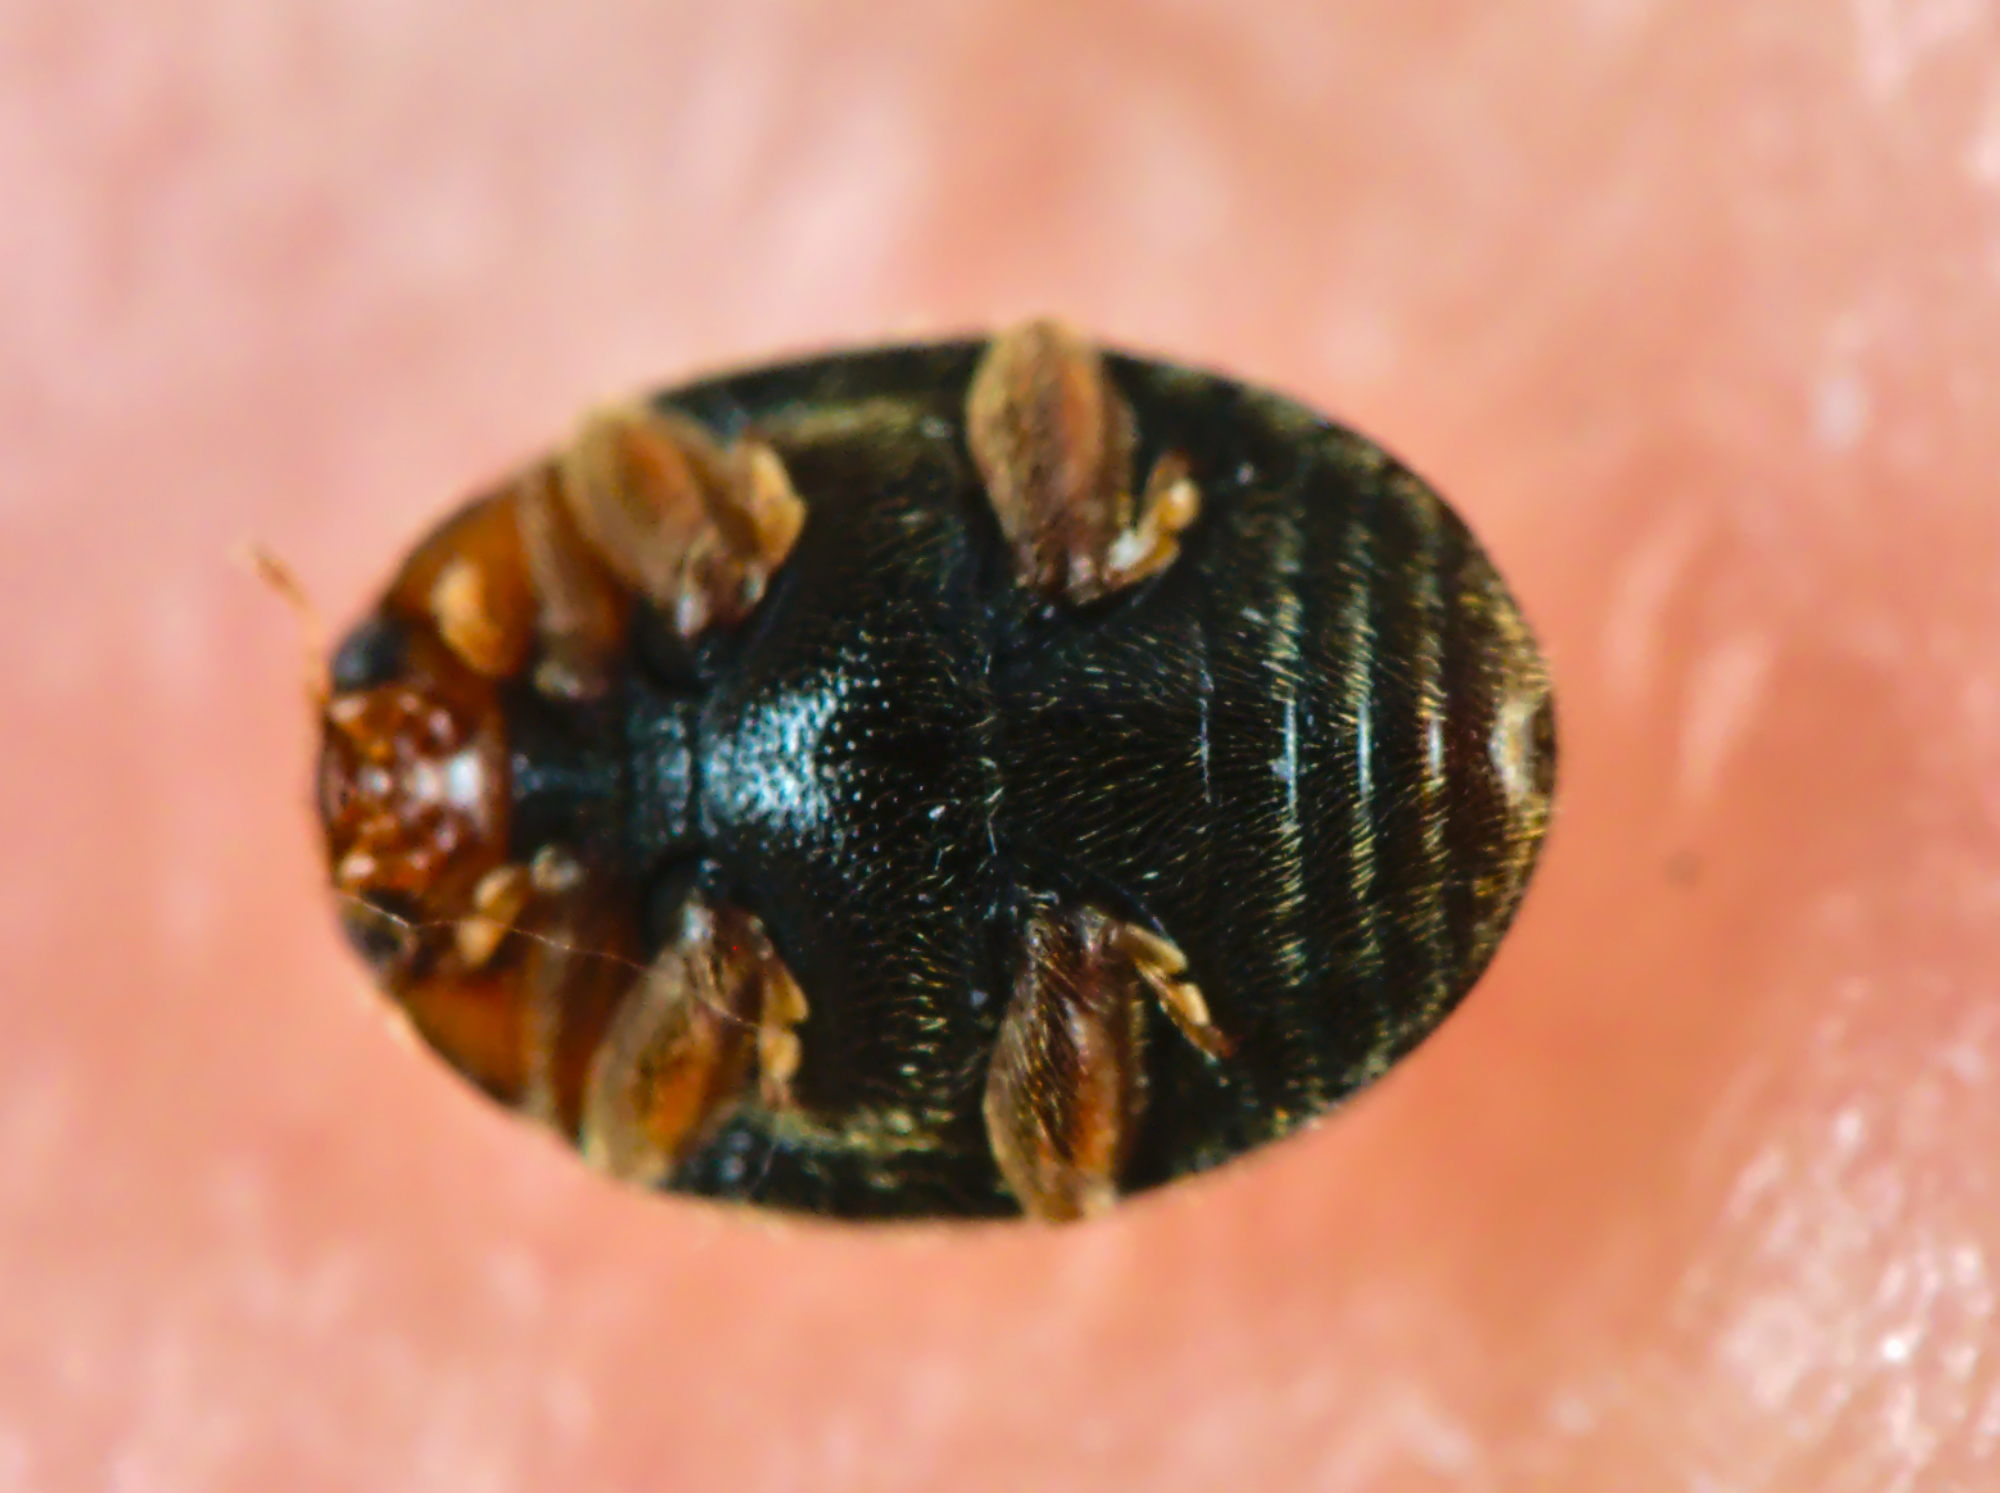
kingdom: Animalia
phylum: Arthropoda
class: Insecta
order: Coleoptera
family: Coccinellidae
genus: Scymnus
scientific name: Scymnus auritus
